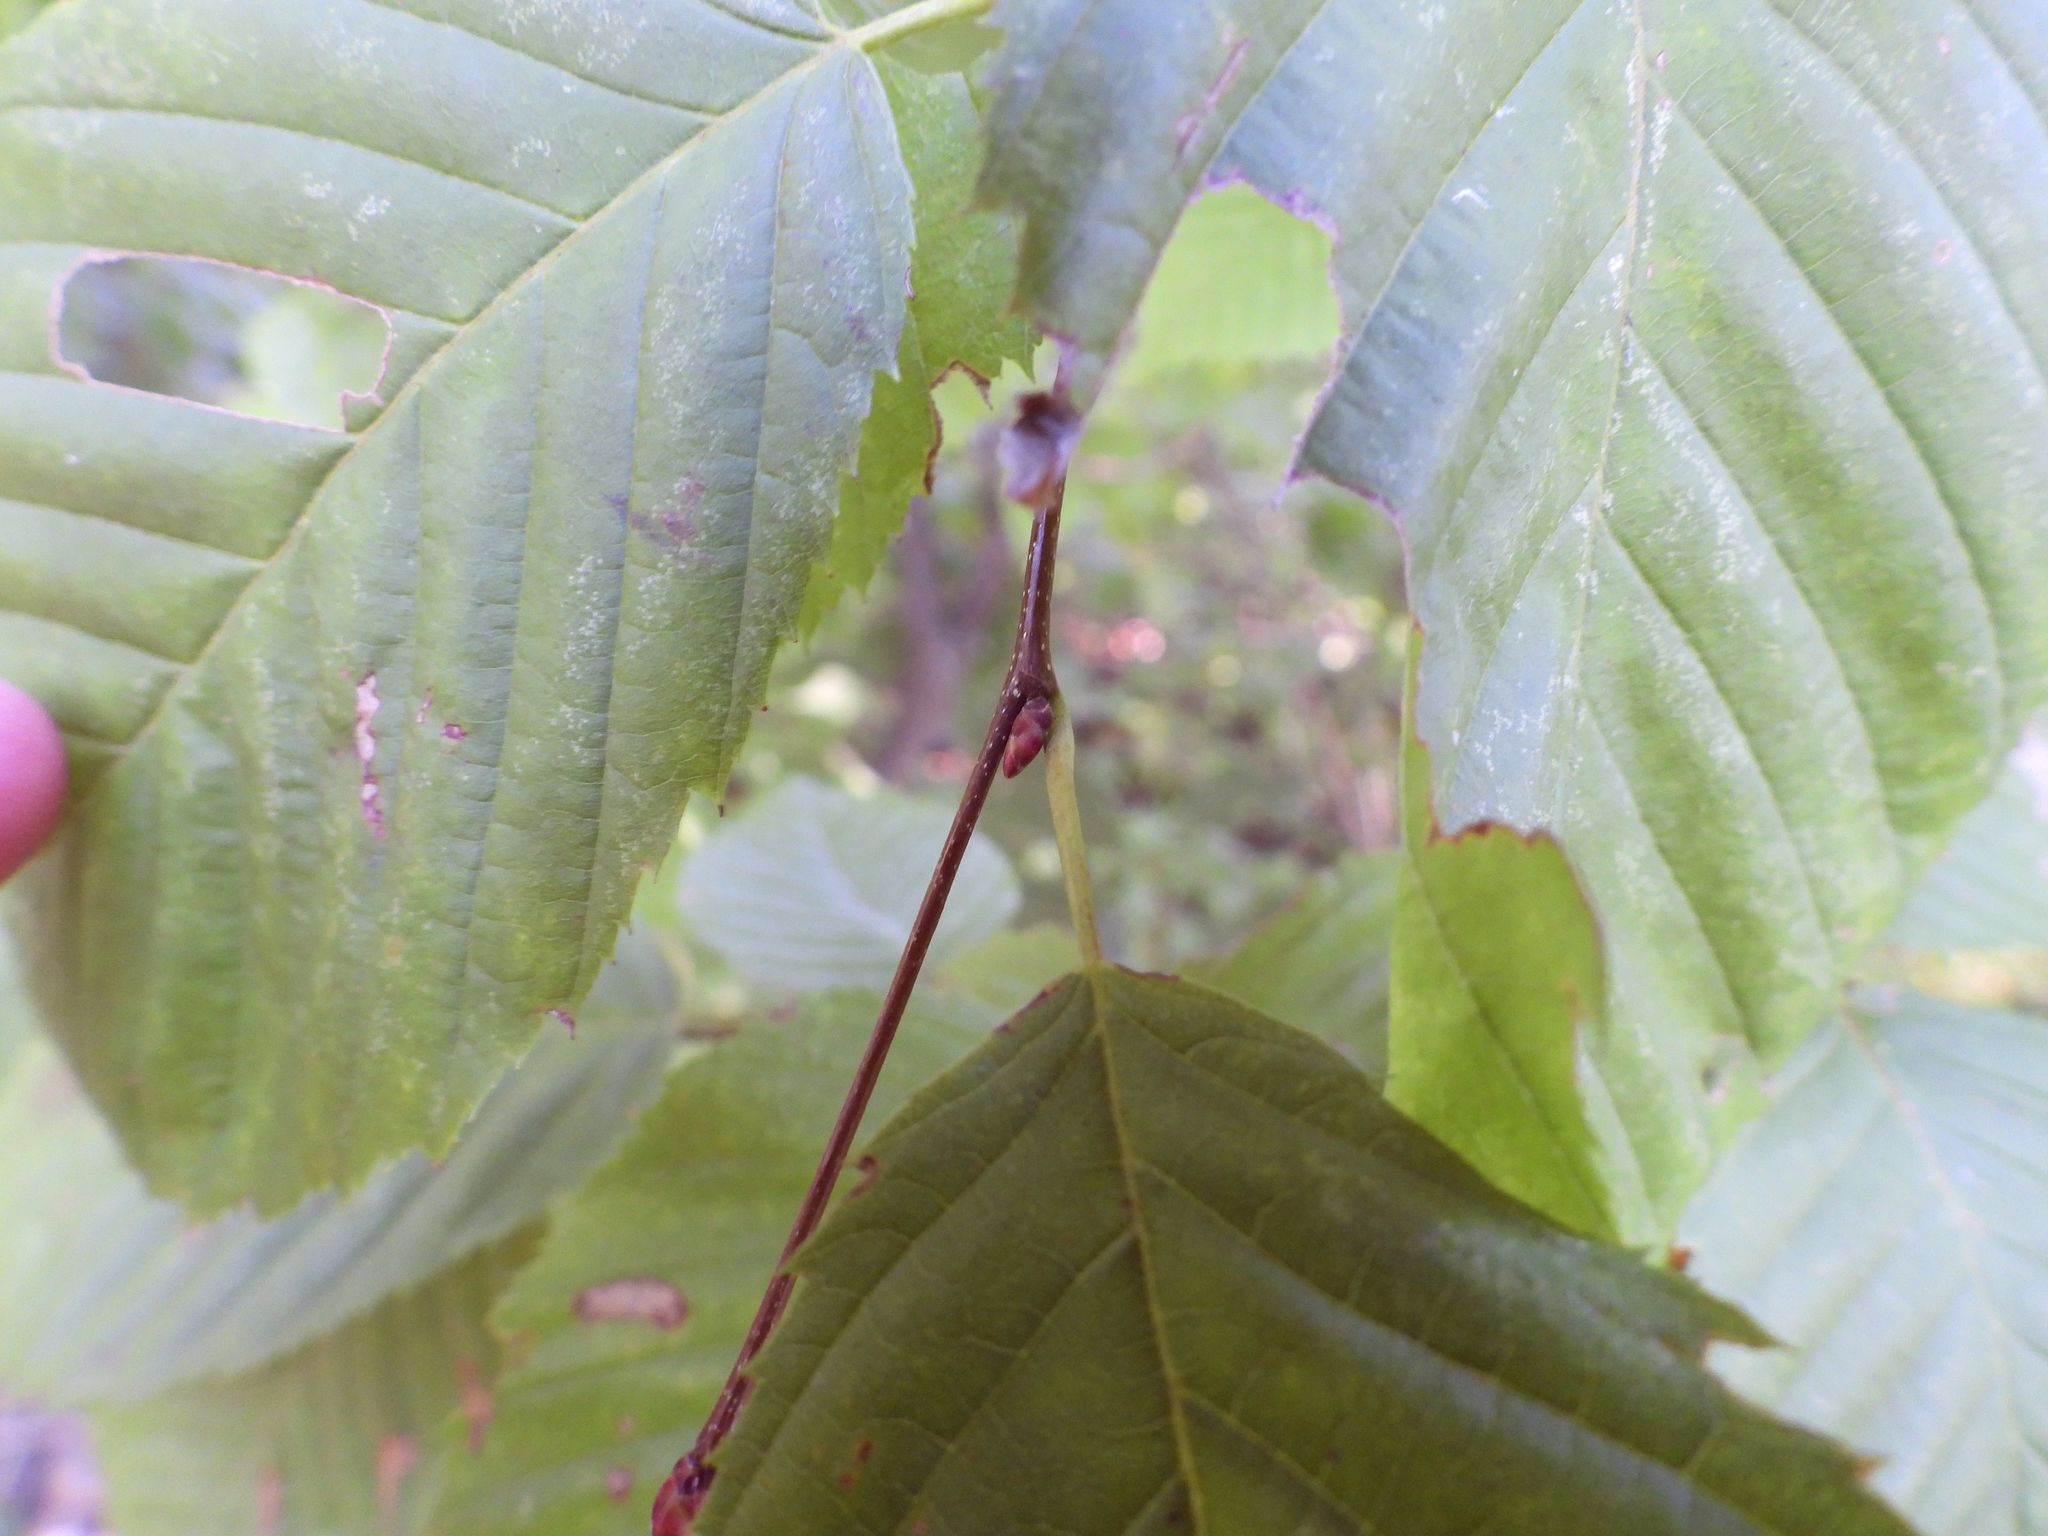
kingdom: Plantae
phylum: Tracheophyta
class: Magnoliopsida
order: Fagales
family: Betulaceae
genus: Carpinus
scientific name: Carpinus caroliniana
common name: American hornbeam
